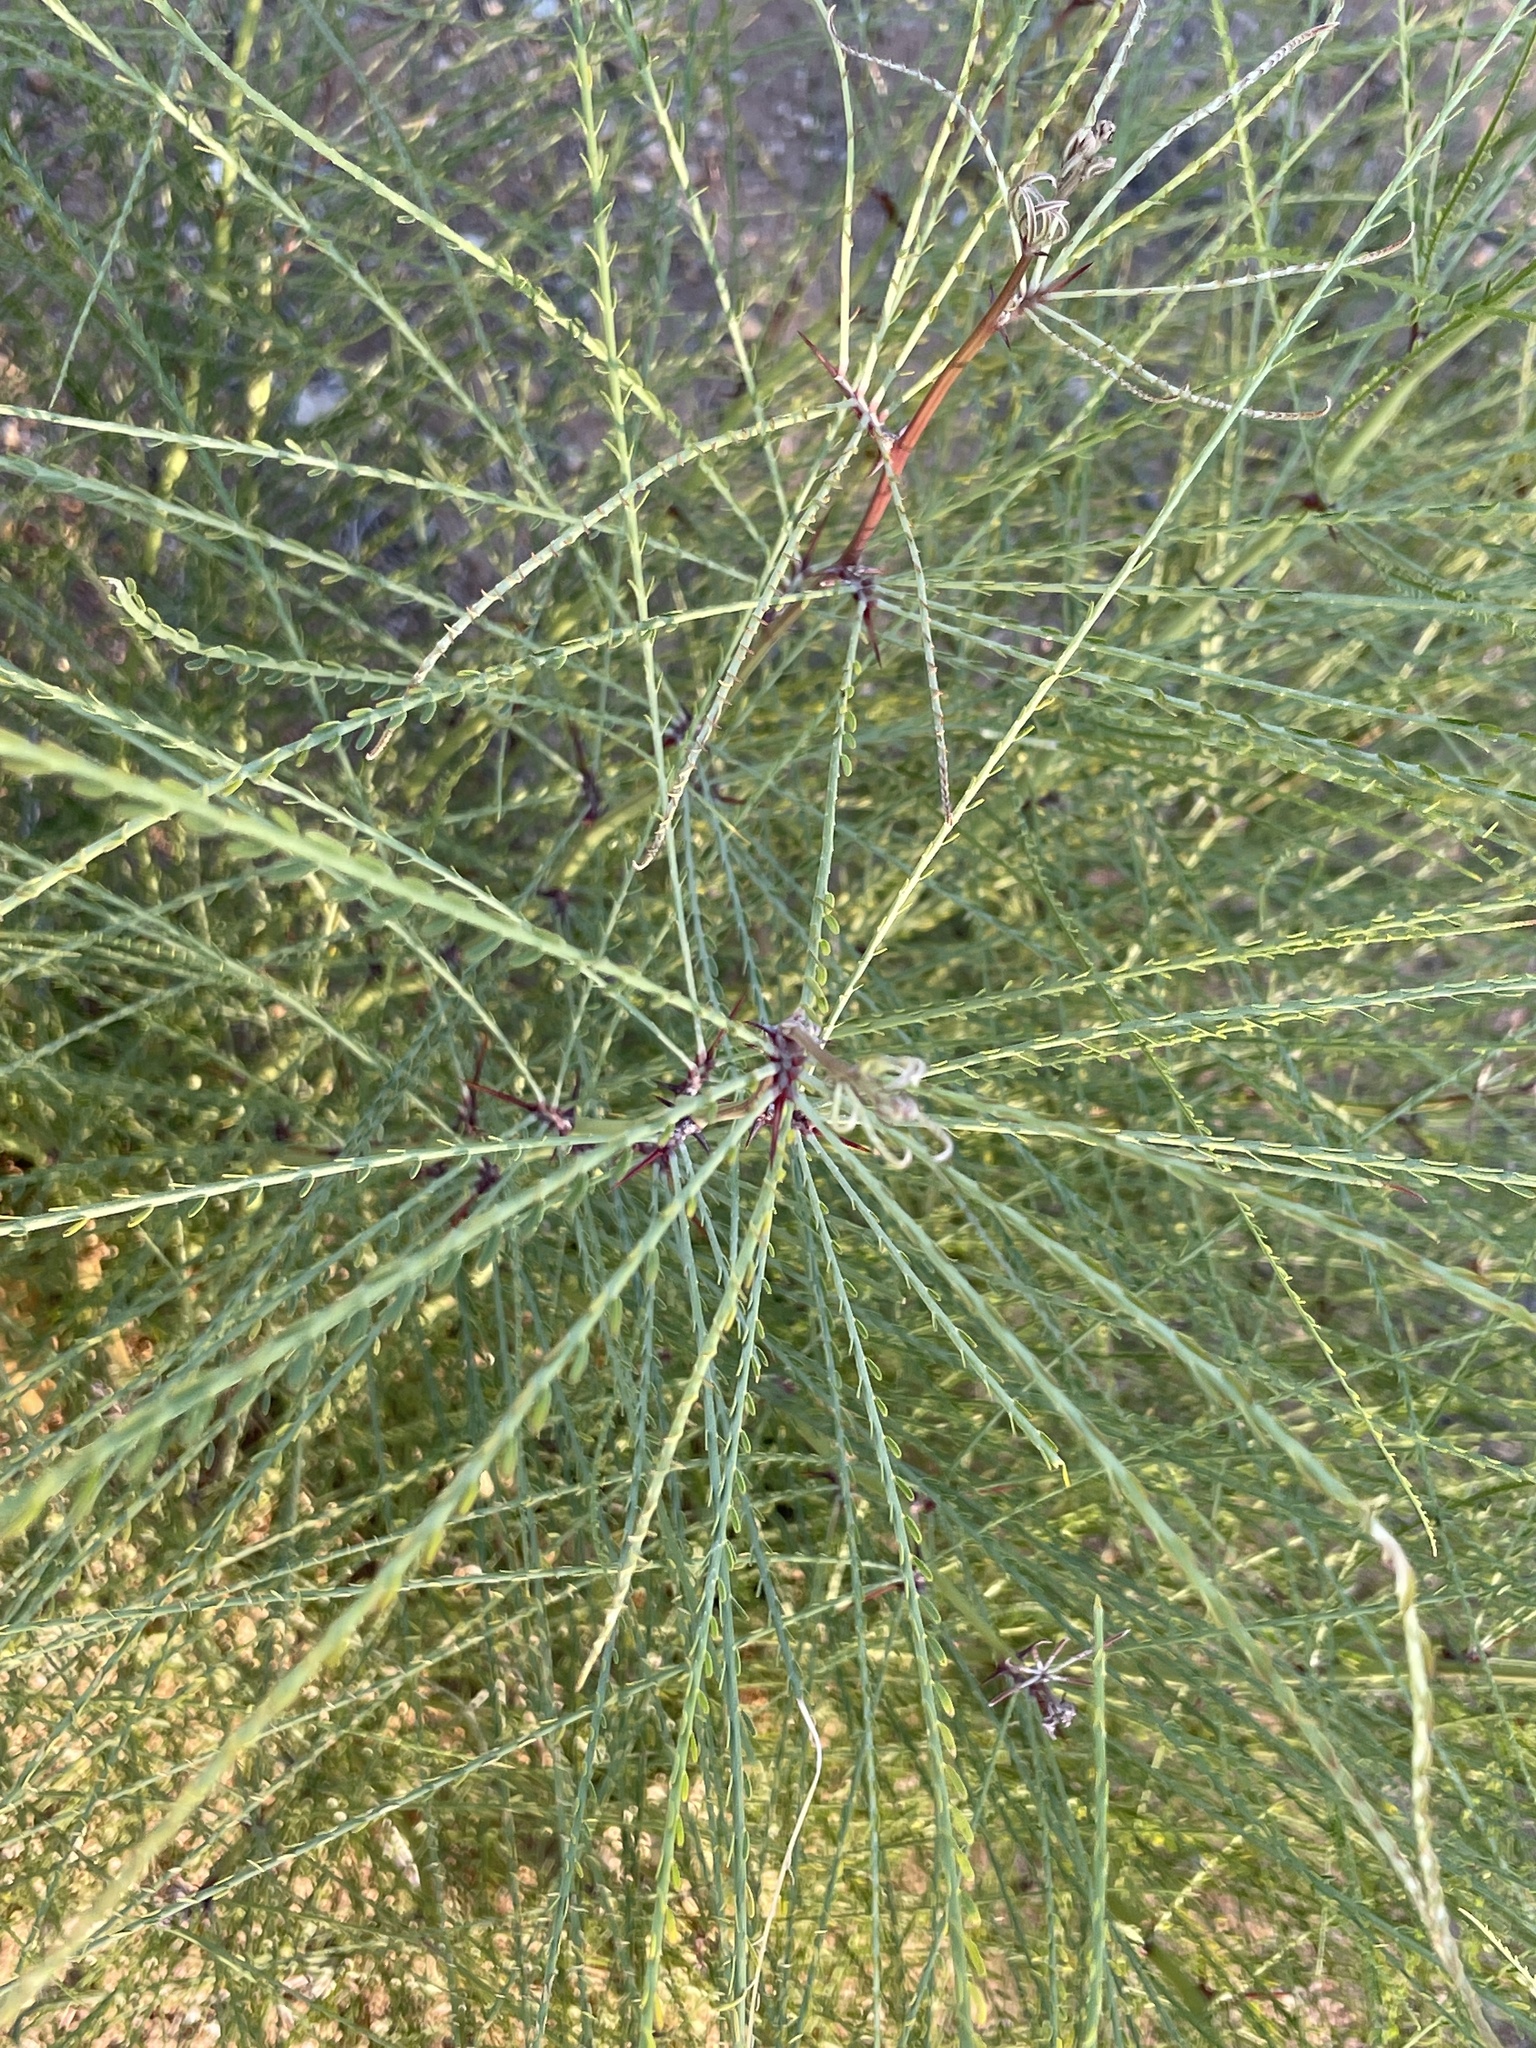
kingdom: Plantae
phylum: Tracheophyta
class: Magnoliopsida
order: Fabales
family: Fabaceae
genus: Parkinsonia
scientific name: Parkinsonia aculeata
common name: Jerusalem thorn
